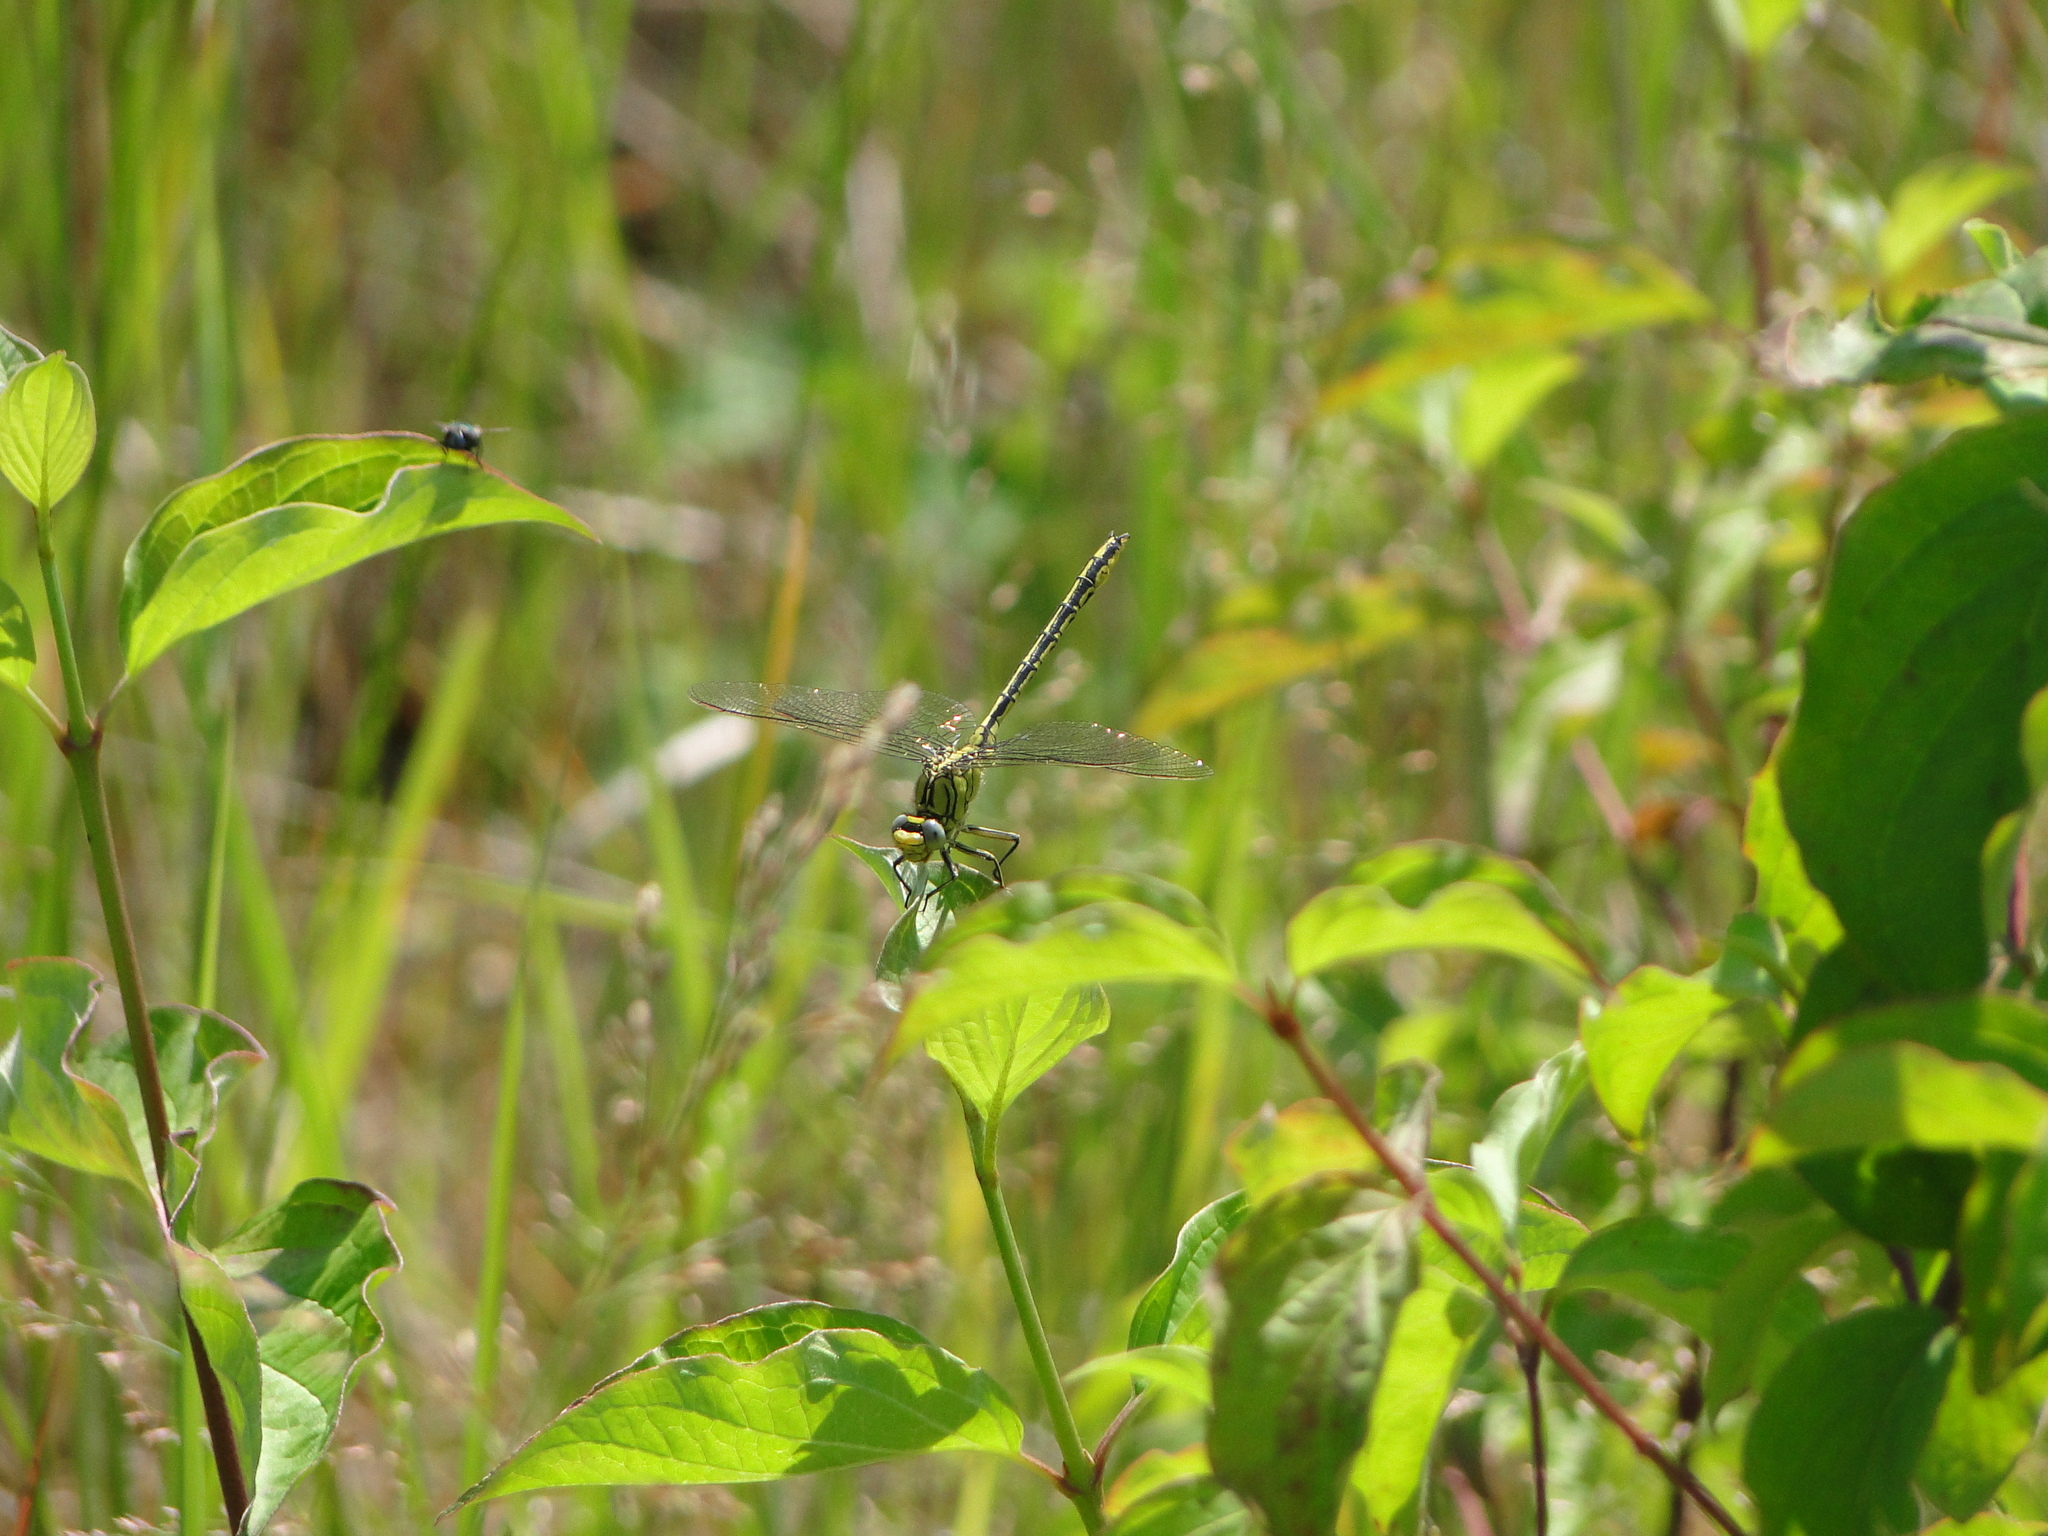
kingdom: Animalia
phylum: Arthropoda
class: Insecta
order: Odonata
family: Gomphidae
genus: Gomphus
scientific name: Gomphus pulchellus
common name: Western clubtail
